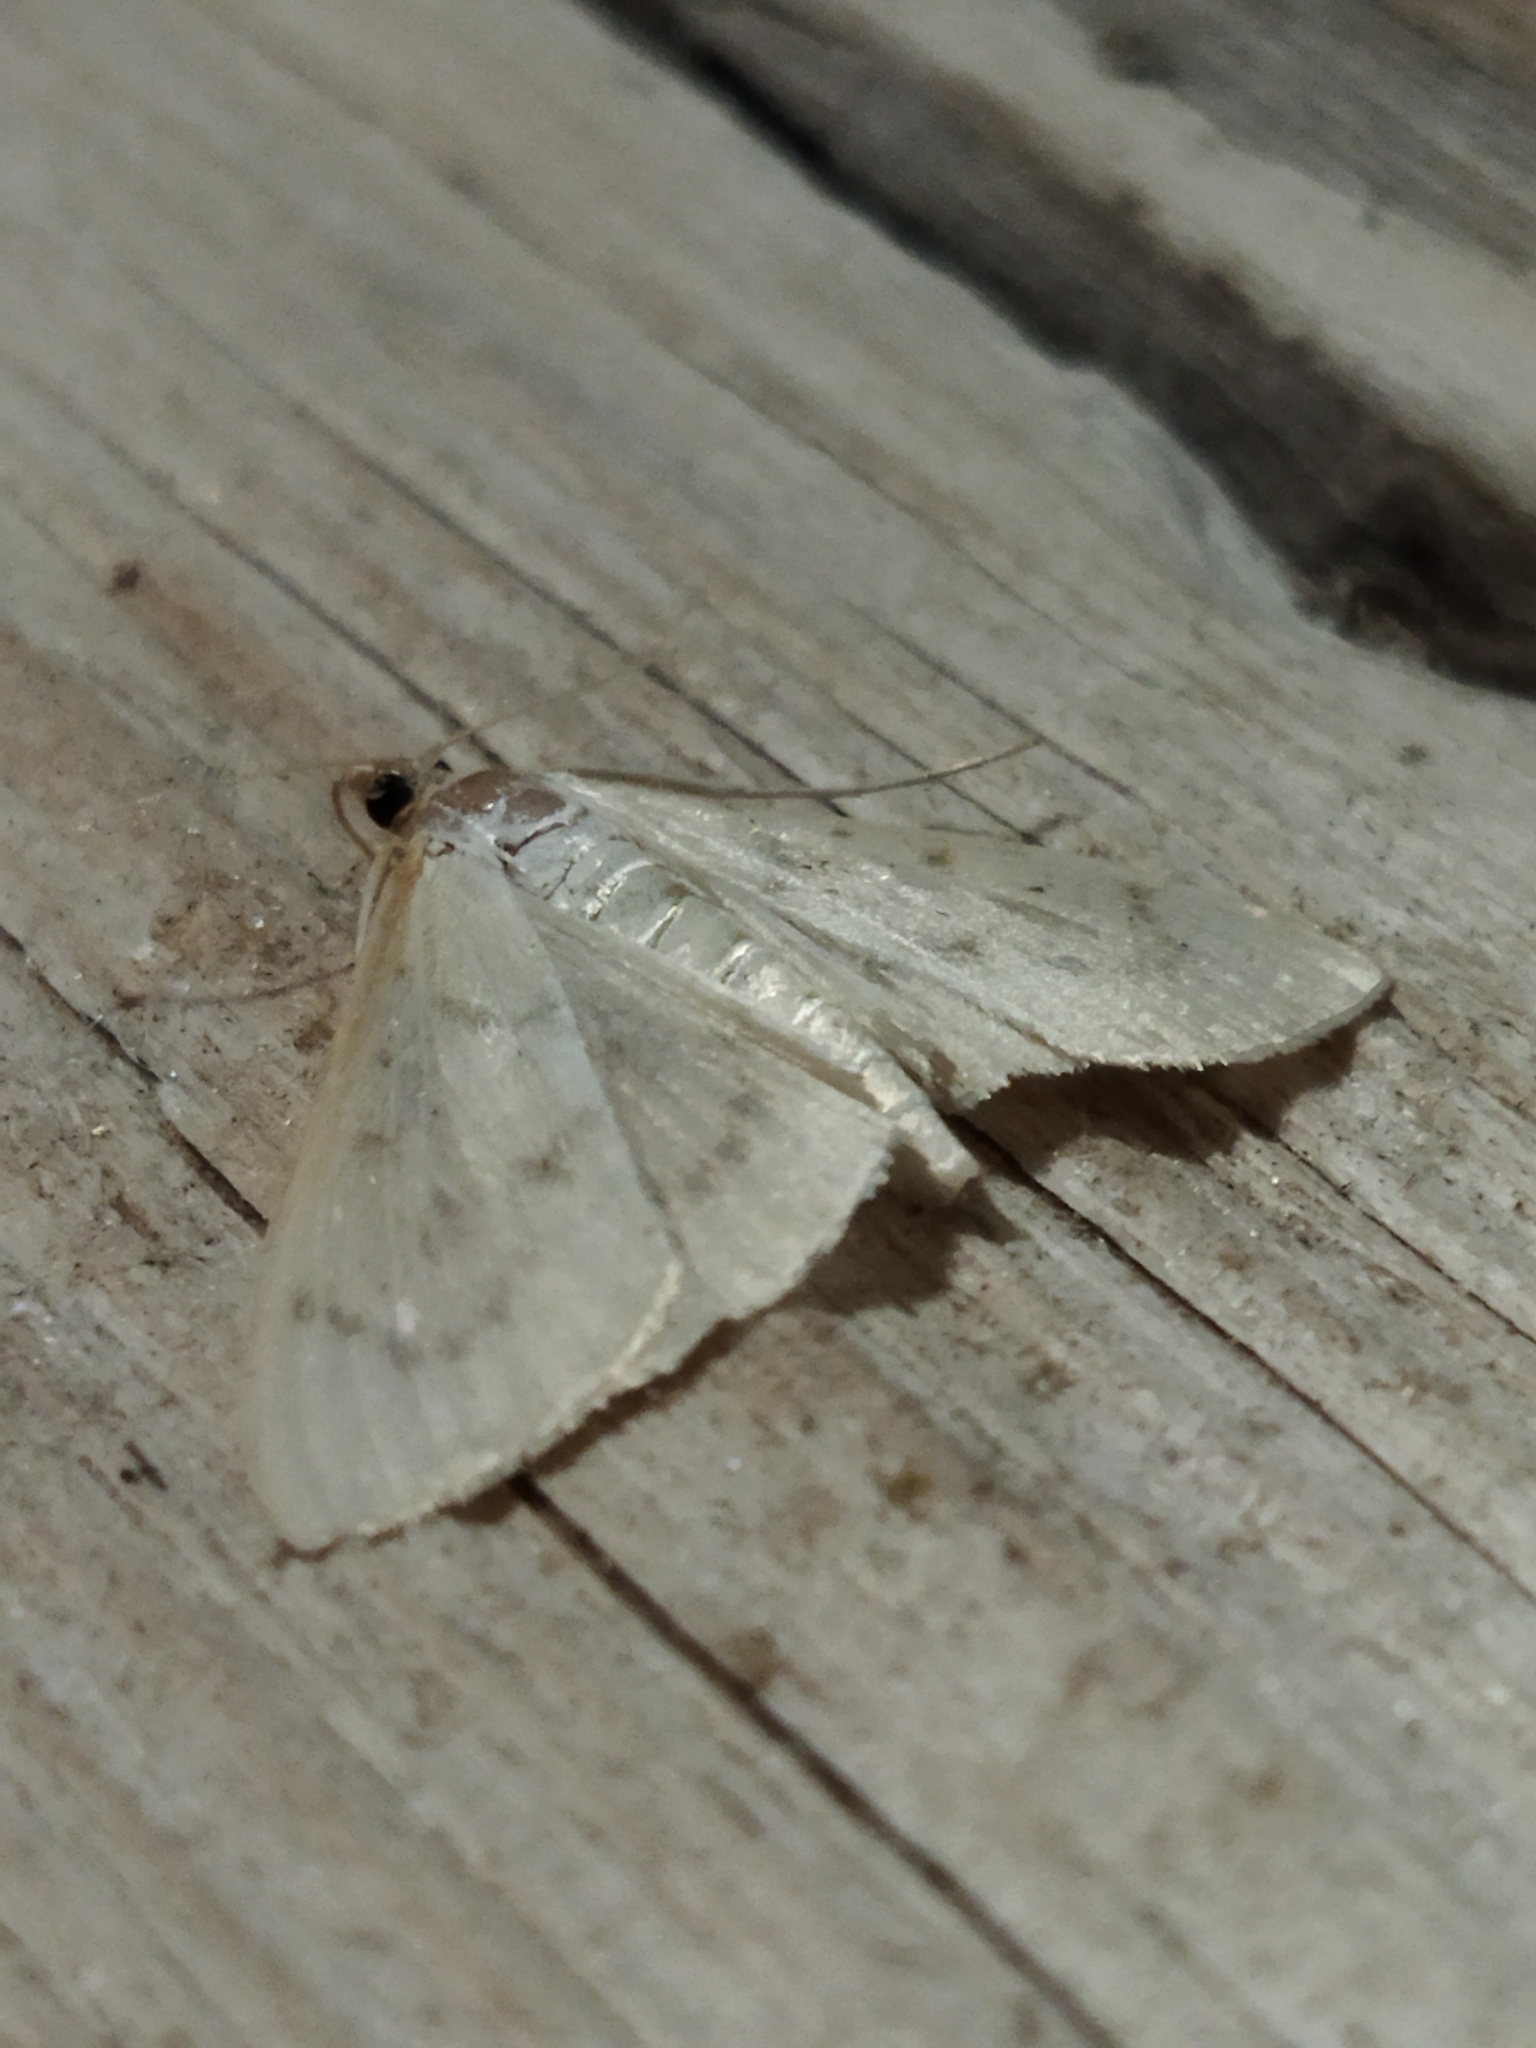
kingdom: Animalia
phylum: Arthropoda
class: Insecta
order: Lepidoptera
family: Crambidae
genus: Pyrausta
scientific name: Pyrausta testalis
